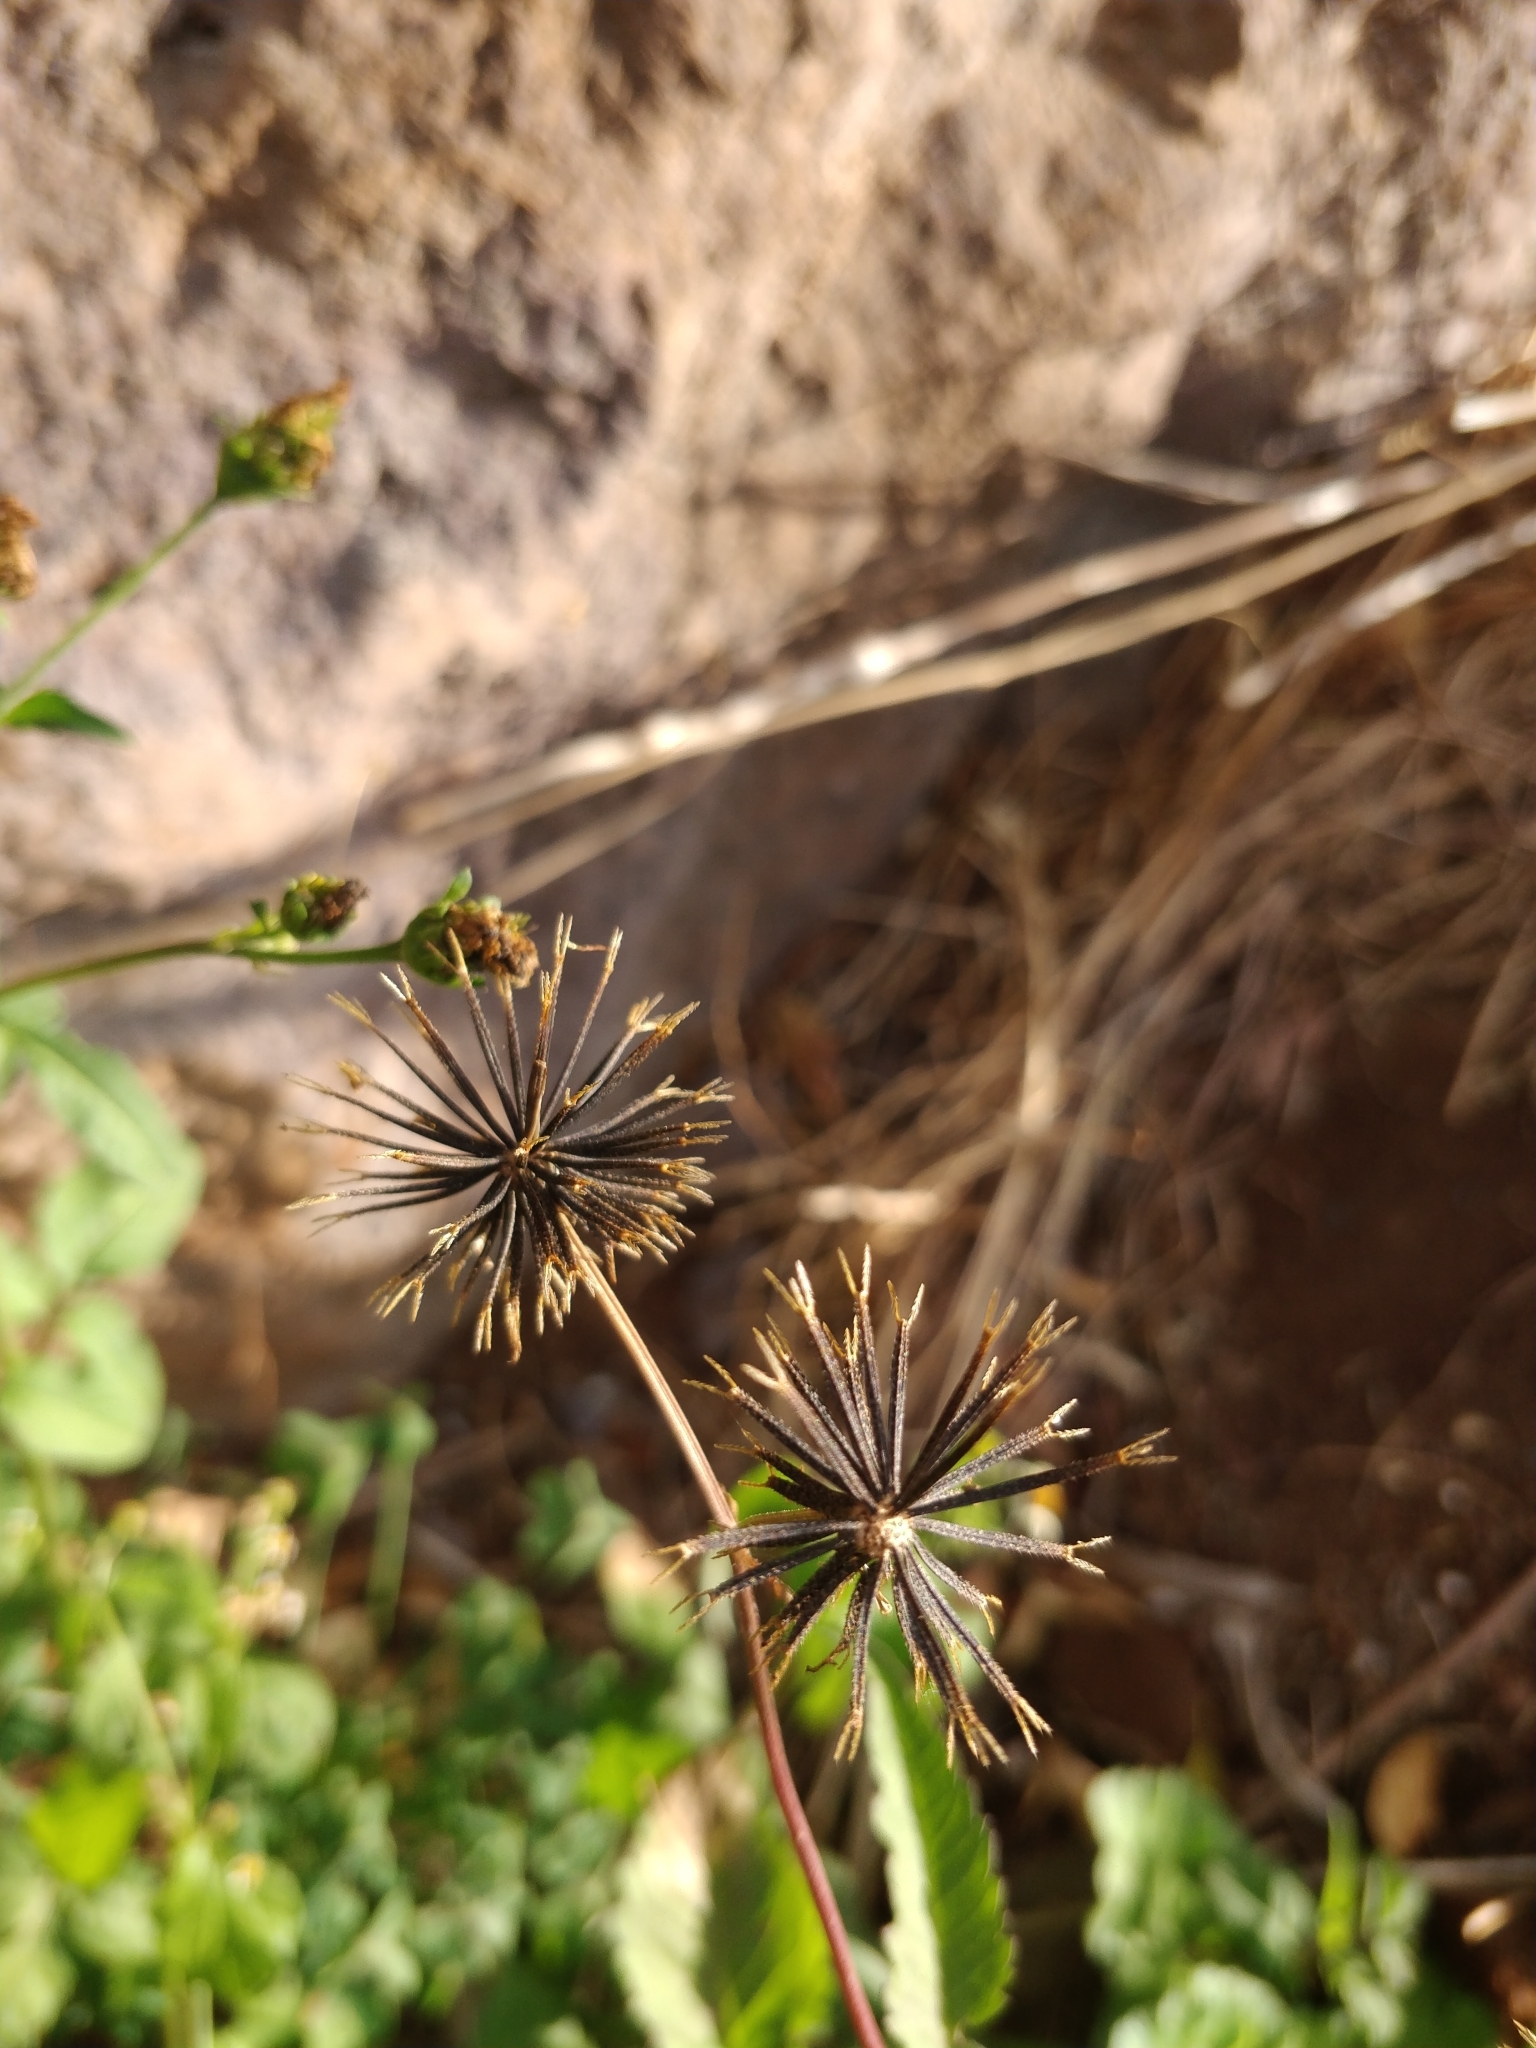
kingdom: Plantae
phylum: Tracheophyta
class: Magnoliopsida
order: Asterales
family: Asteraceae
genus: Bidens
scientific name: Bidens pilosa
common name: Black-jack
